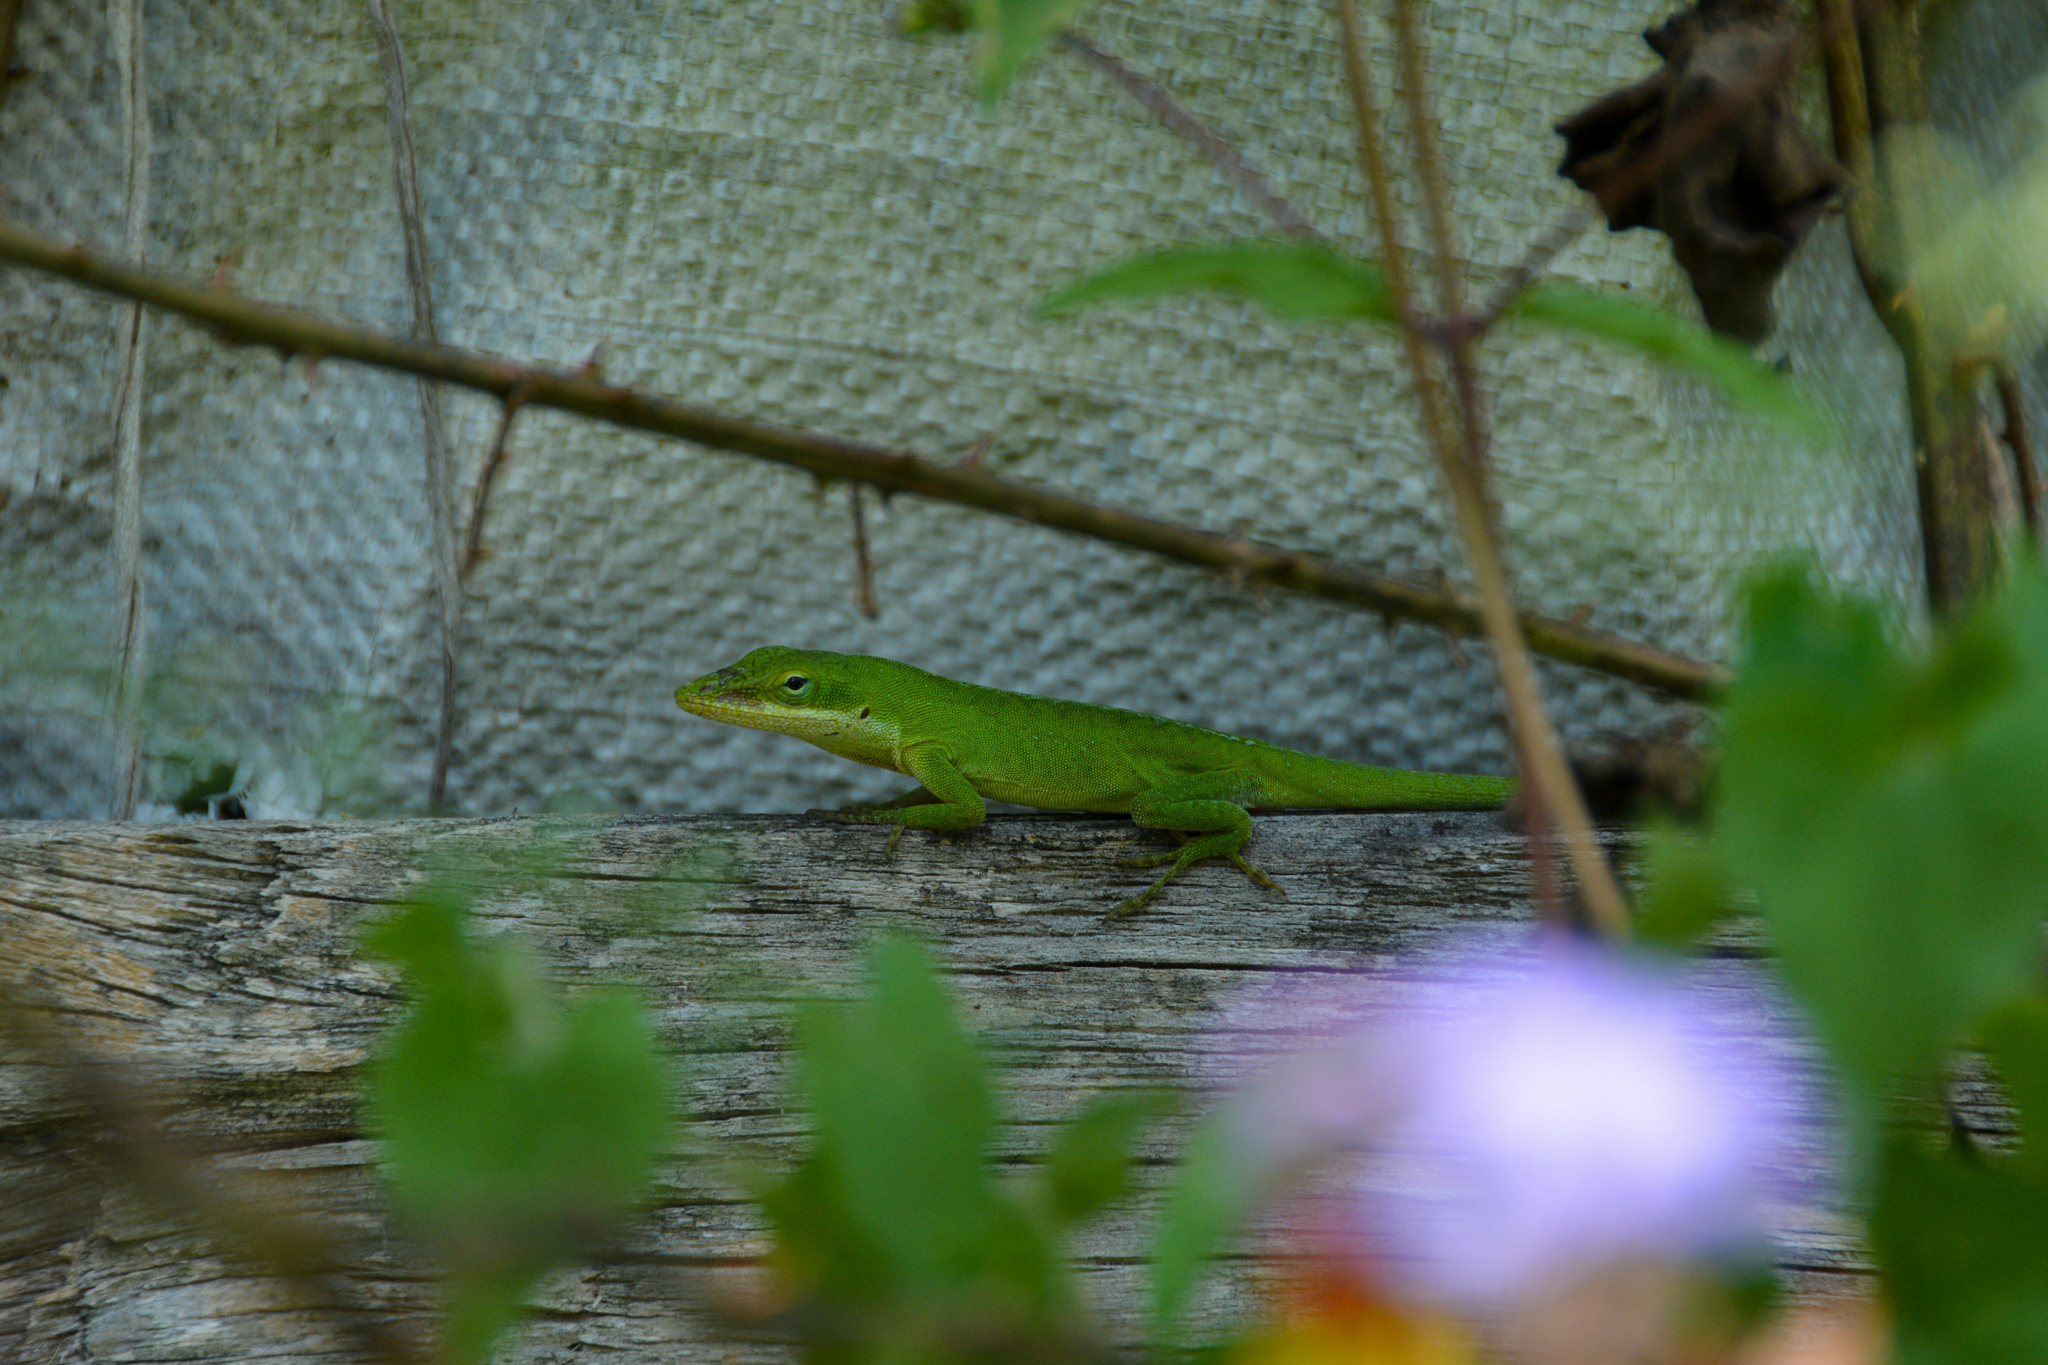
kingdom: Animalia
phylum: Chordata
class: Squamata
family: Dactyloidae
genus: Anolis
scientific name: Anolis carolinensis
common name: Green anole
